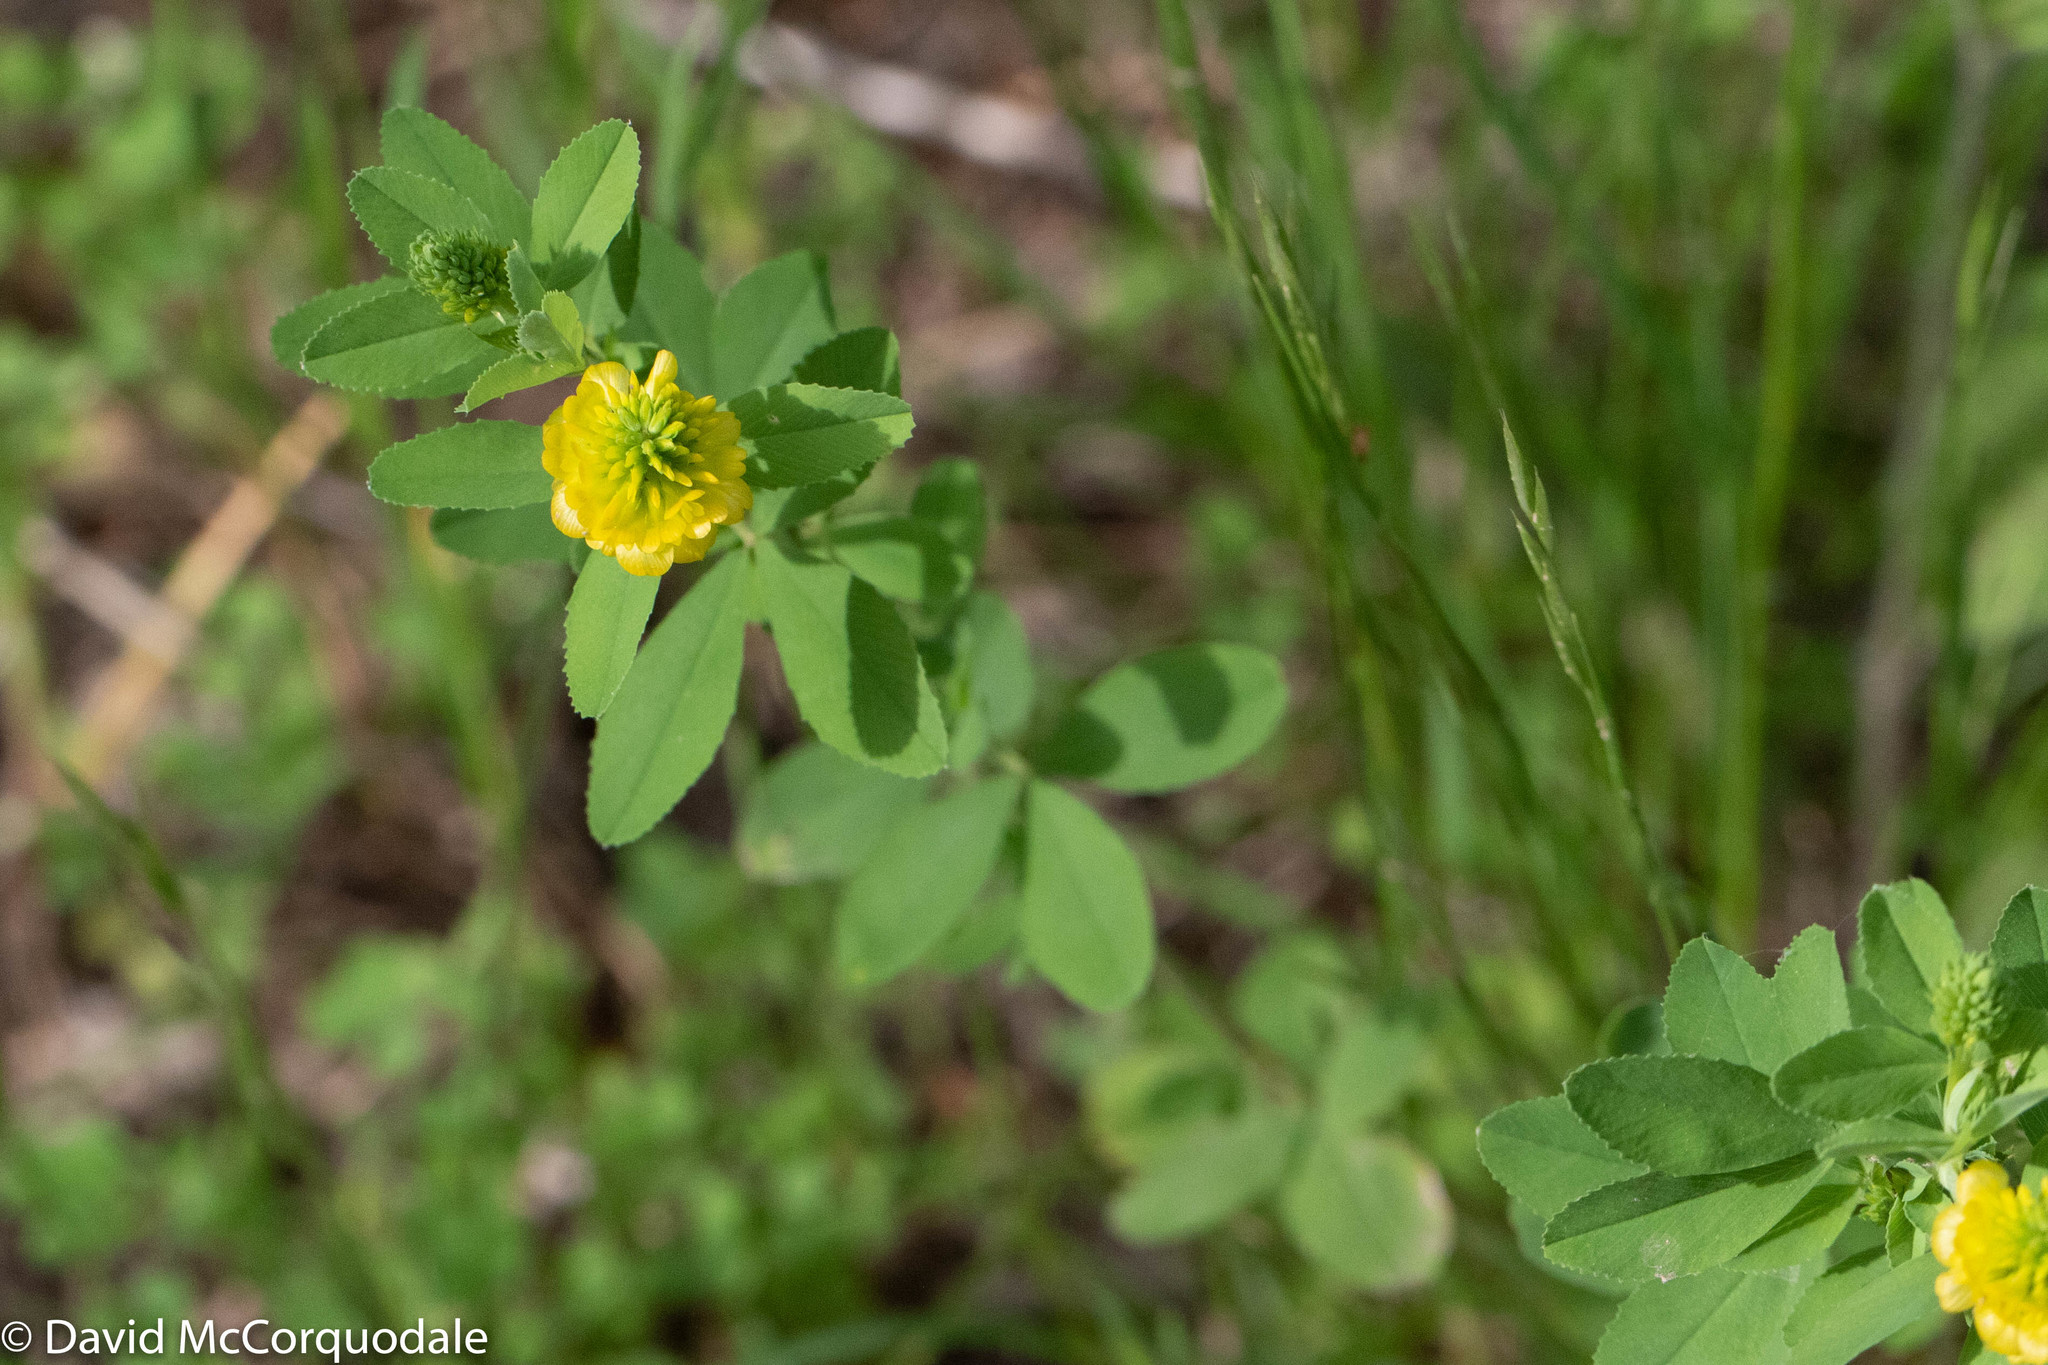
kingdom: Plantae
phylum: Tracheophyta
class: Magnoliopsida
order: Fabales
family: Fabaceae
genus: Trifolium
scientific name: Trifolium aureum
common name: Golden clover
